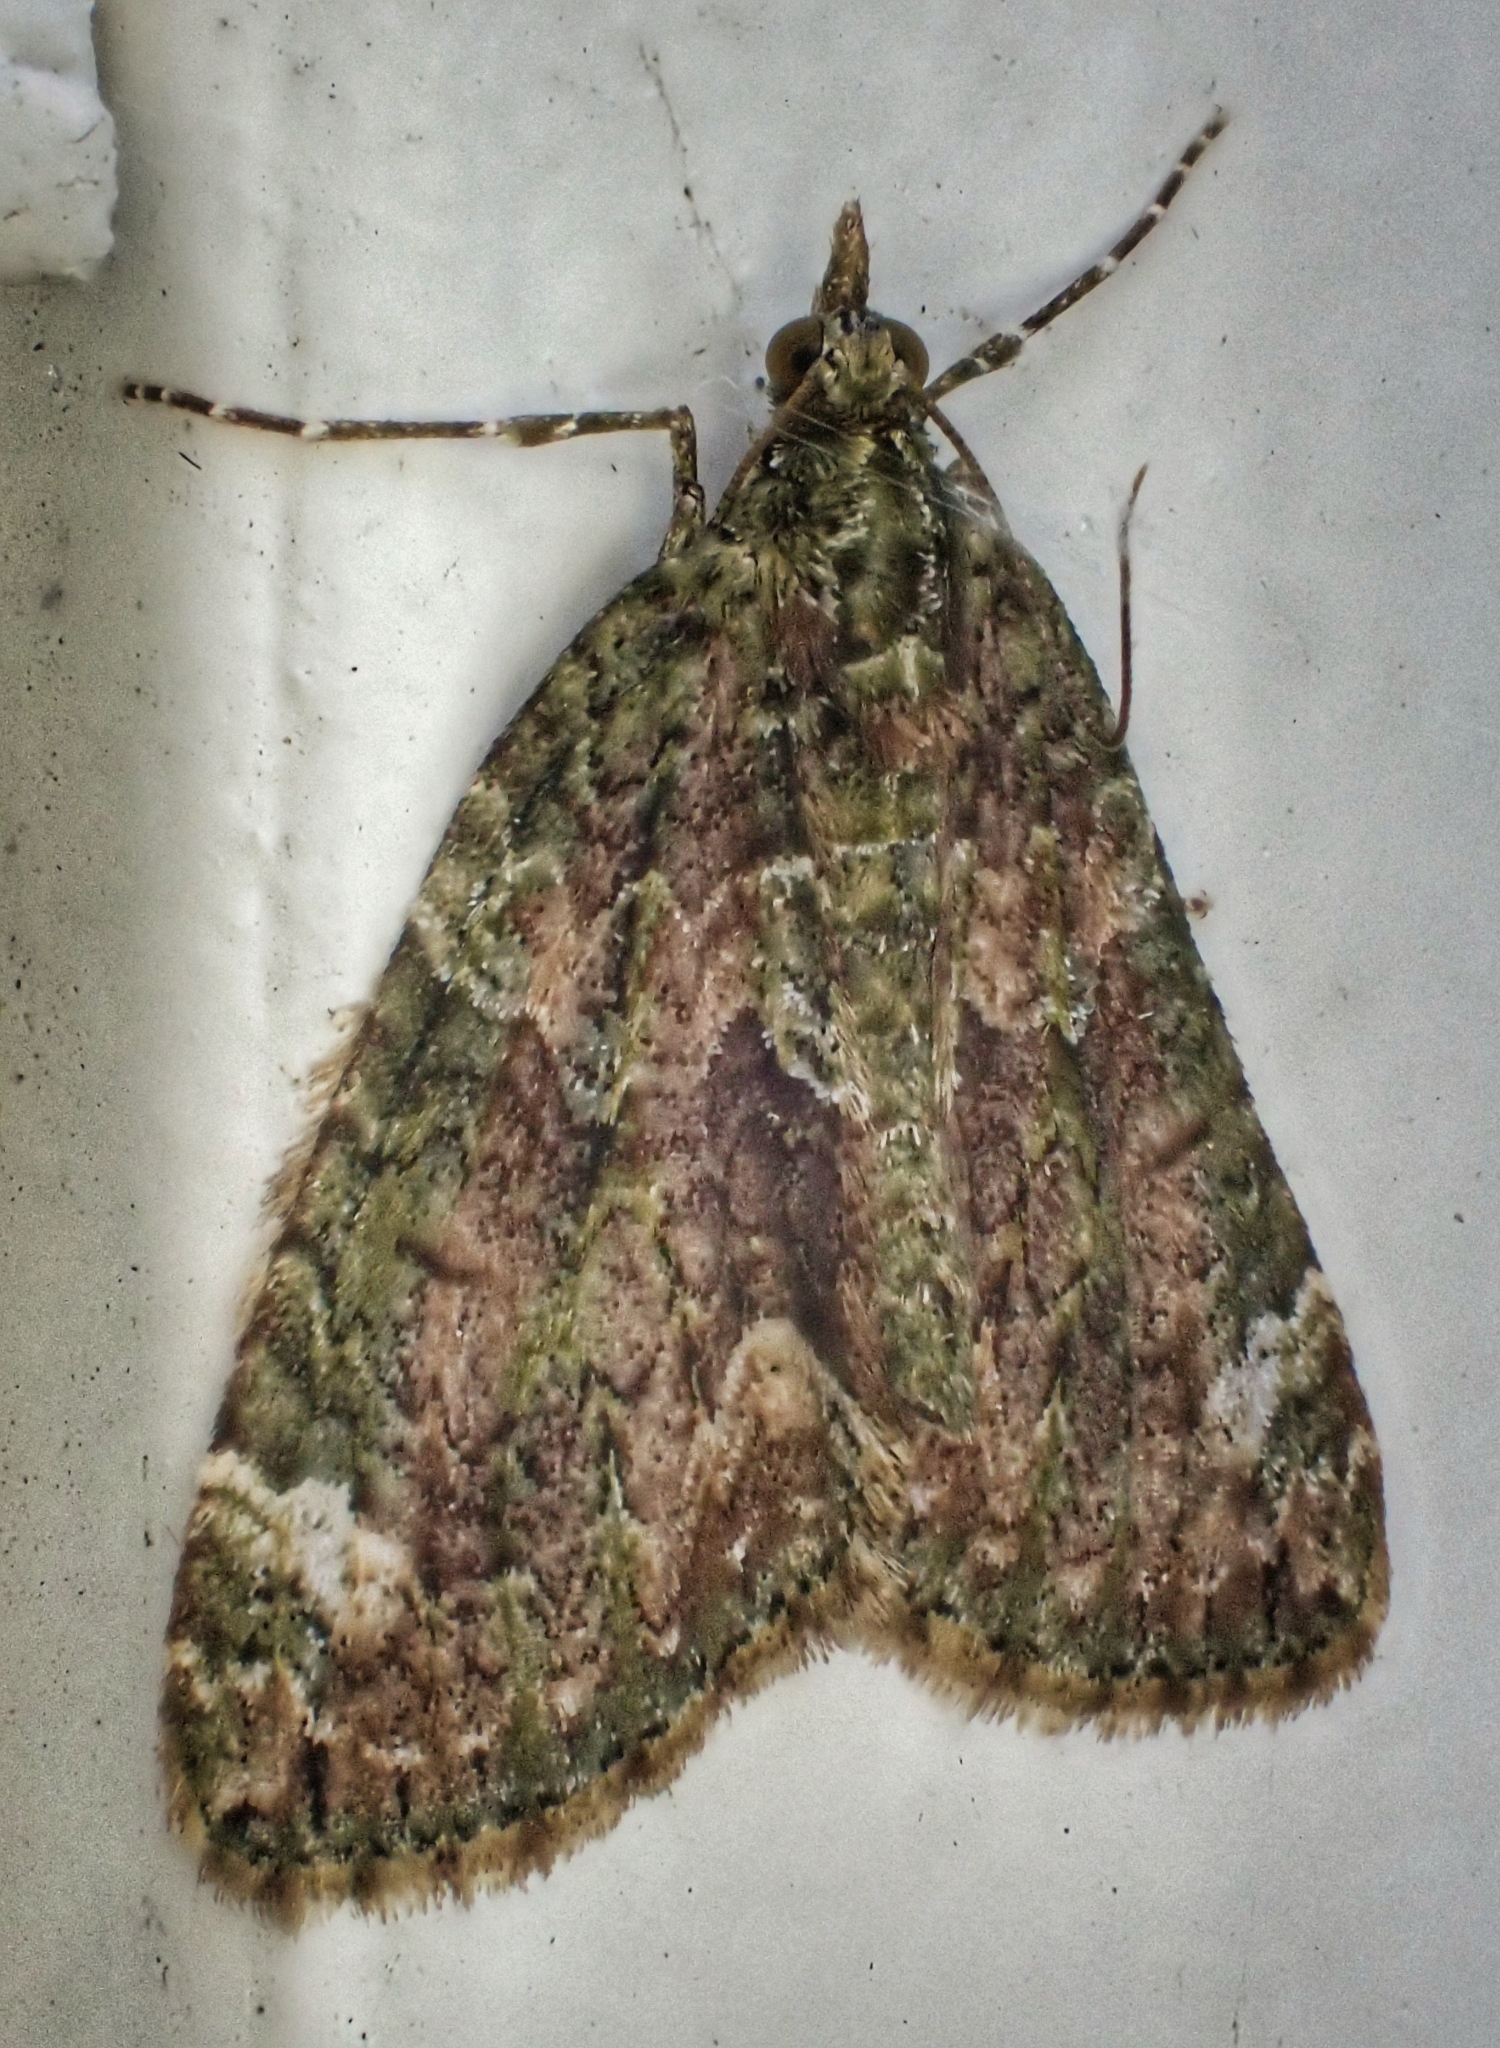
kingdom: Animalia
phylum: Arthropoda
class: Insecta
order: Lepidoptera
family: Geometridae
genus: Chloroclysta
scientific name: Chloroclysta siterata
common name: Red-green carpet
